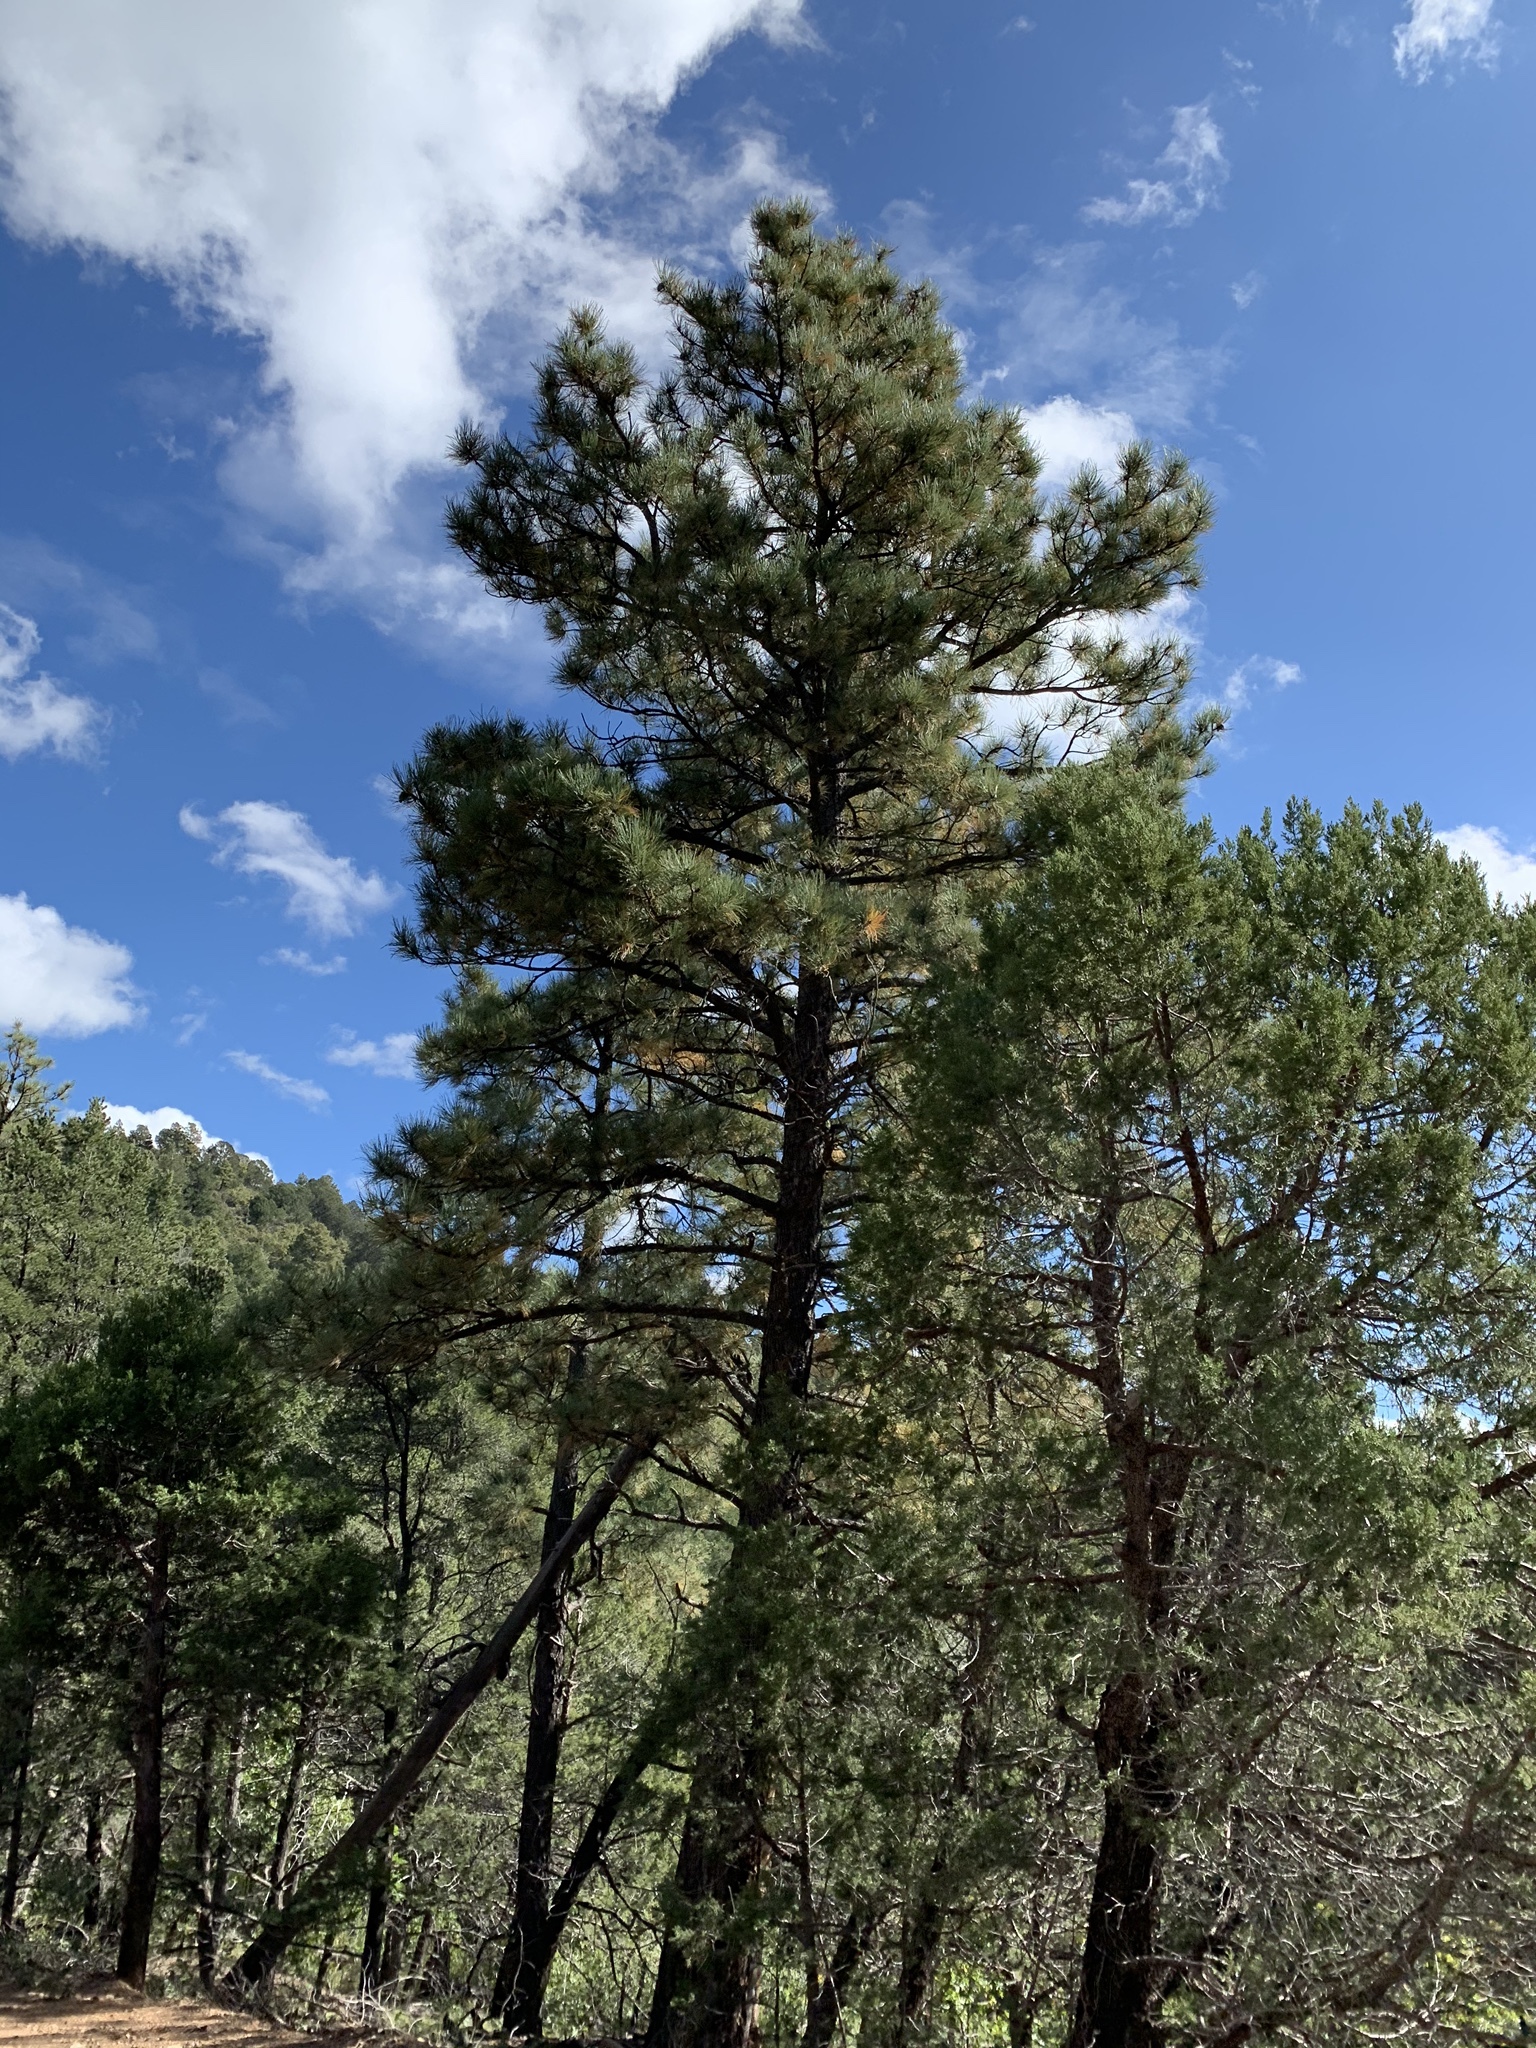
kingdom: Plantae
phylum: Tracheophyta
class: Pinopsida
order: Pinales
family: Pinaceae
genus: Pinus
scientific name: Pinus ponderosa
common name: Western yellow-pine
